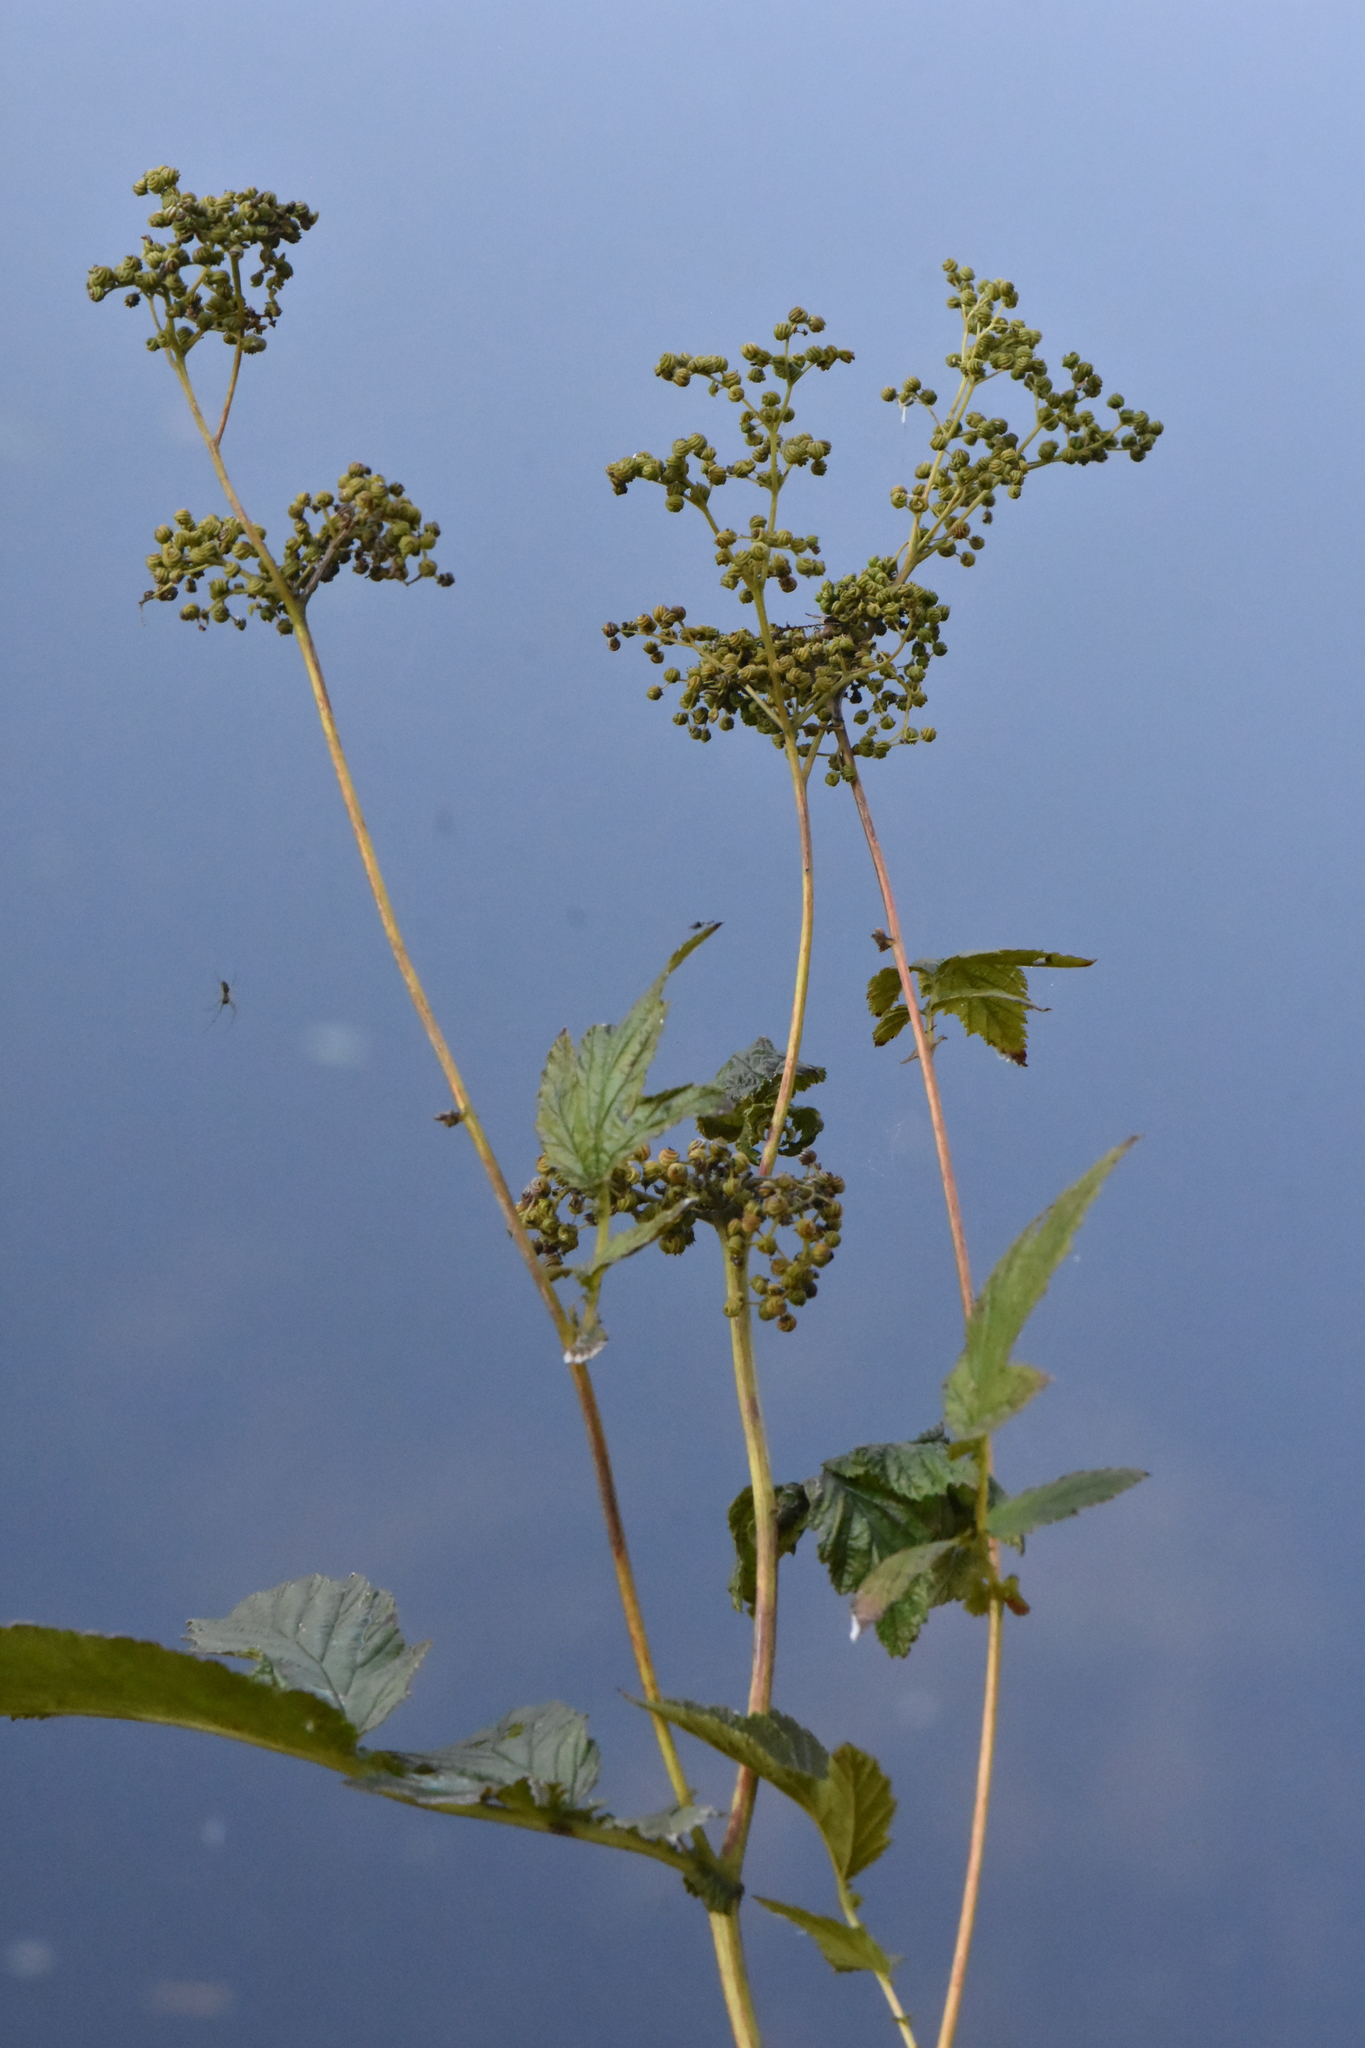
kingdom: Plantae
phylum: Tracheophyta
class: Magnoliopsida
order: Rosales
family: Rosaceae
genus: Filipendula
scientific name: Filipendula ulmaria
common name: Meadowsweet
